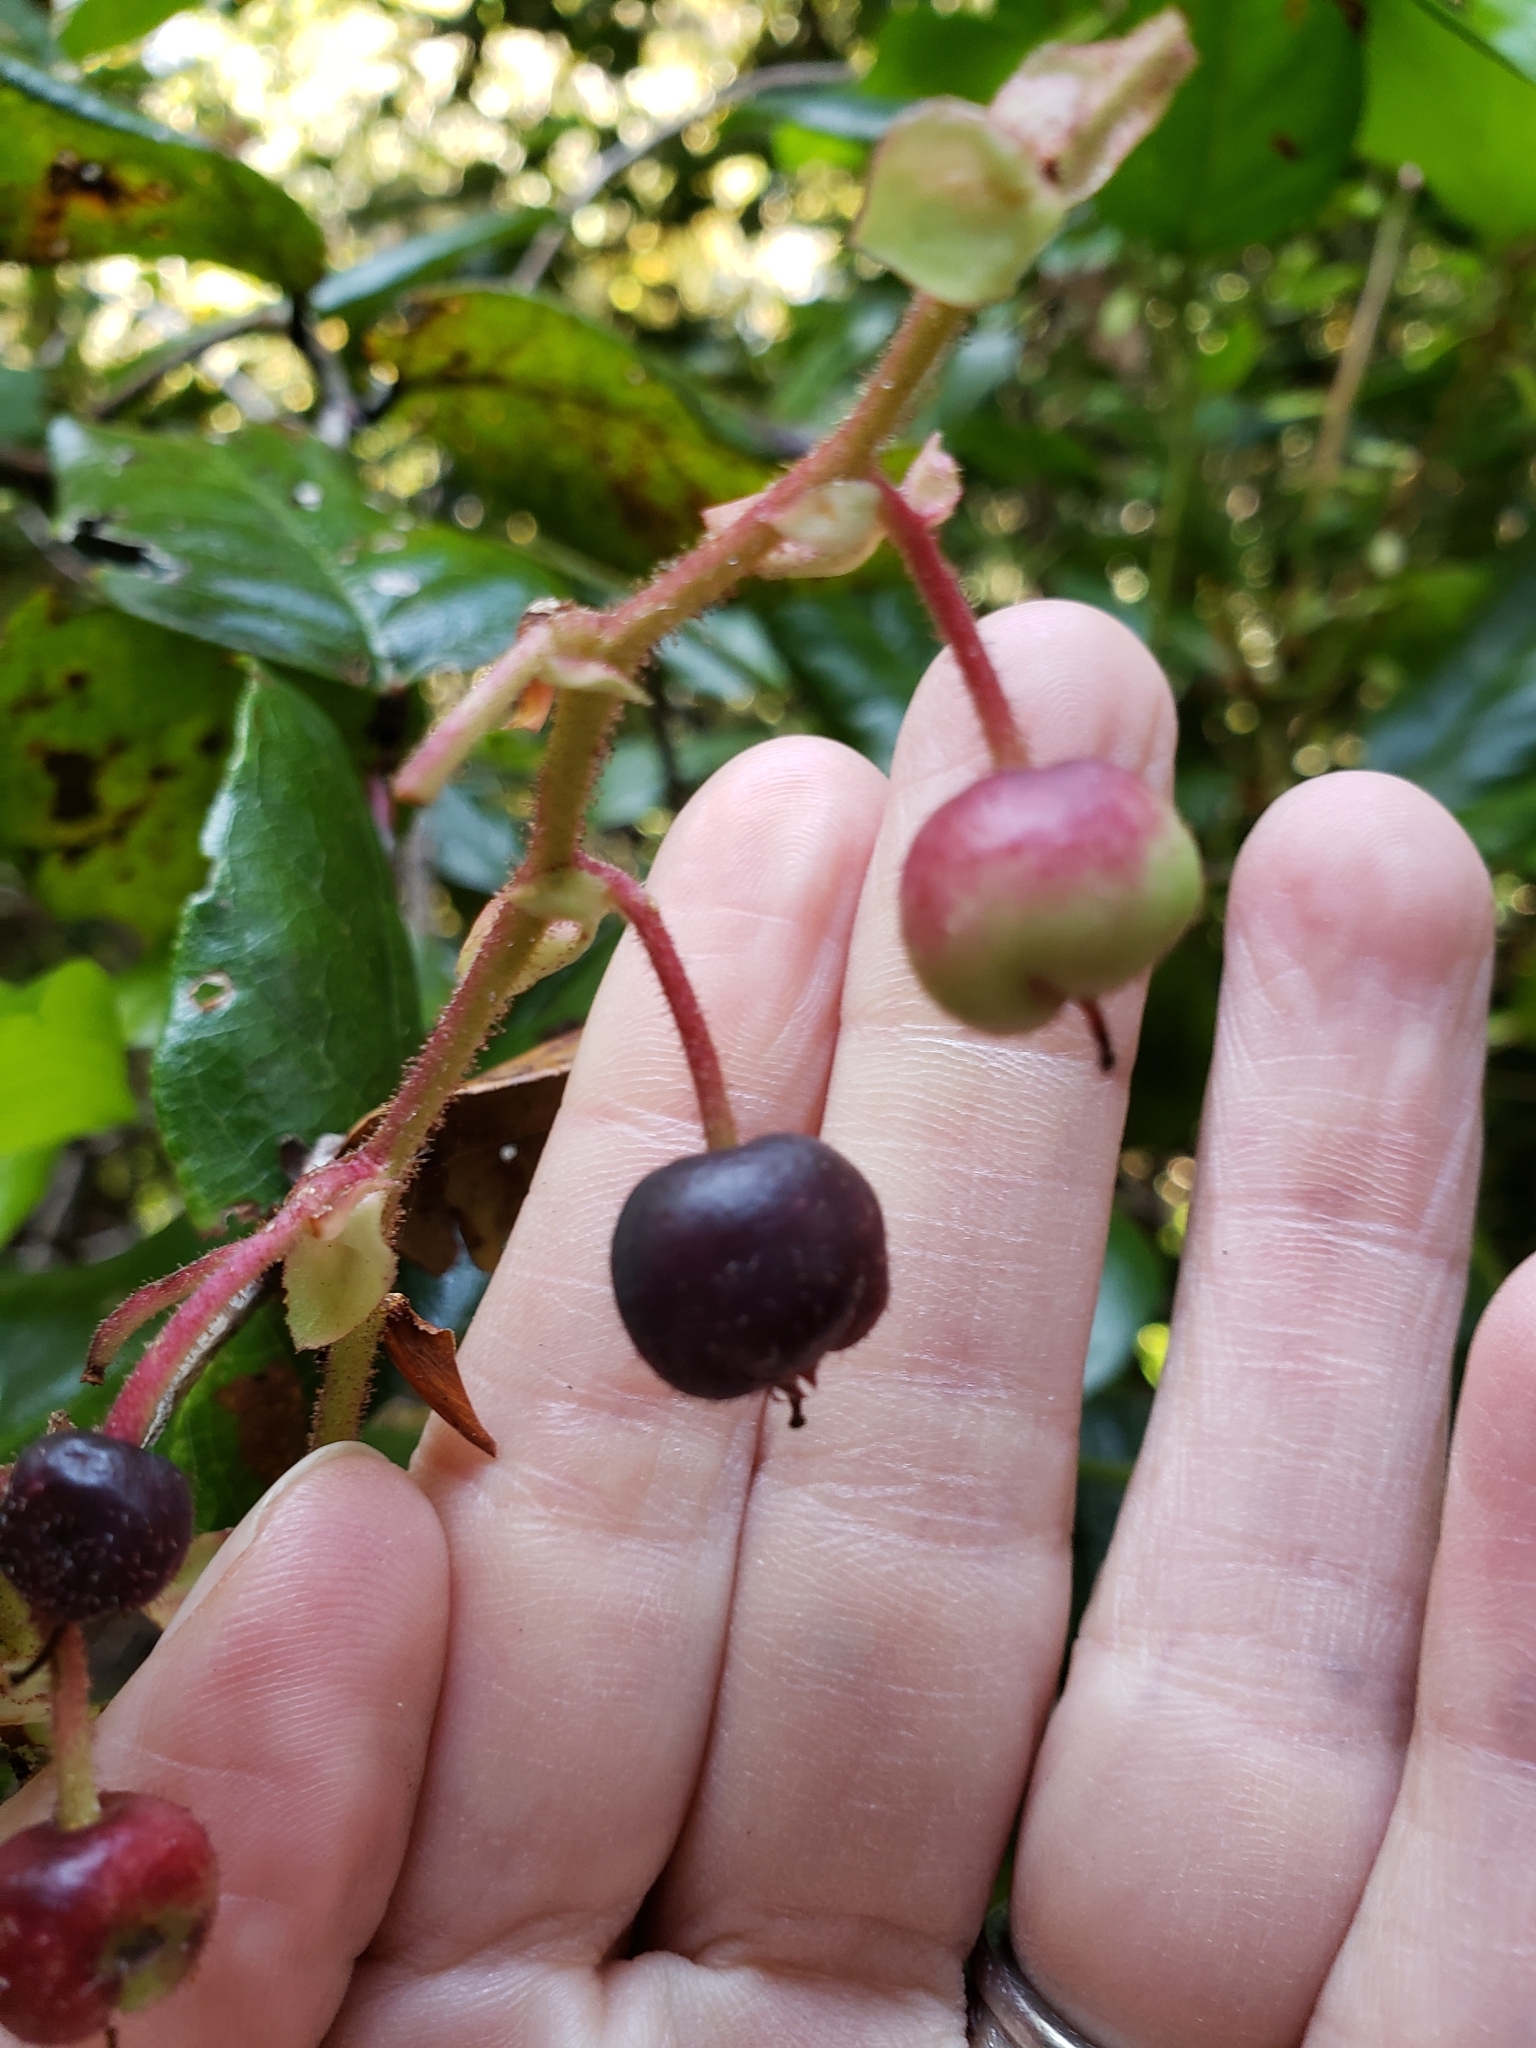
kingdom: Plantae
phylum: Tracheophyta
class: Magnoliopsida
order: Ericales
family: Ericaceae
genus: Gaultheria
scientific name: Gaultheria shallon
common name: Shallon
